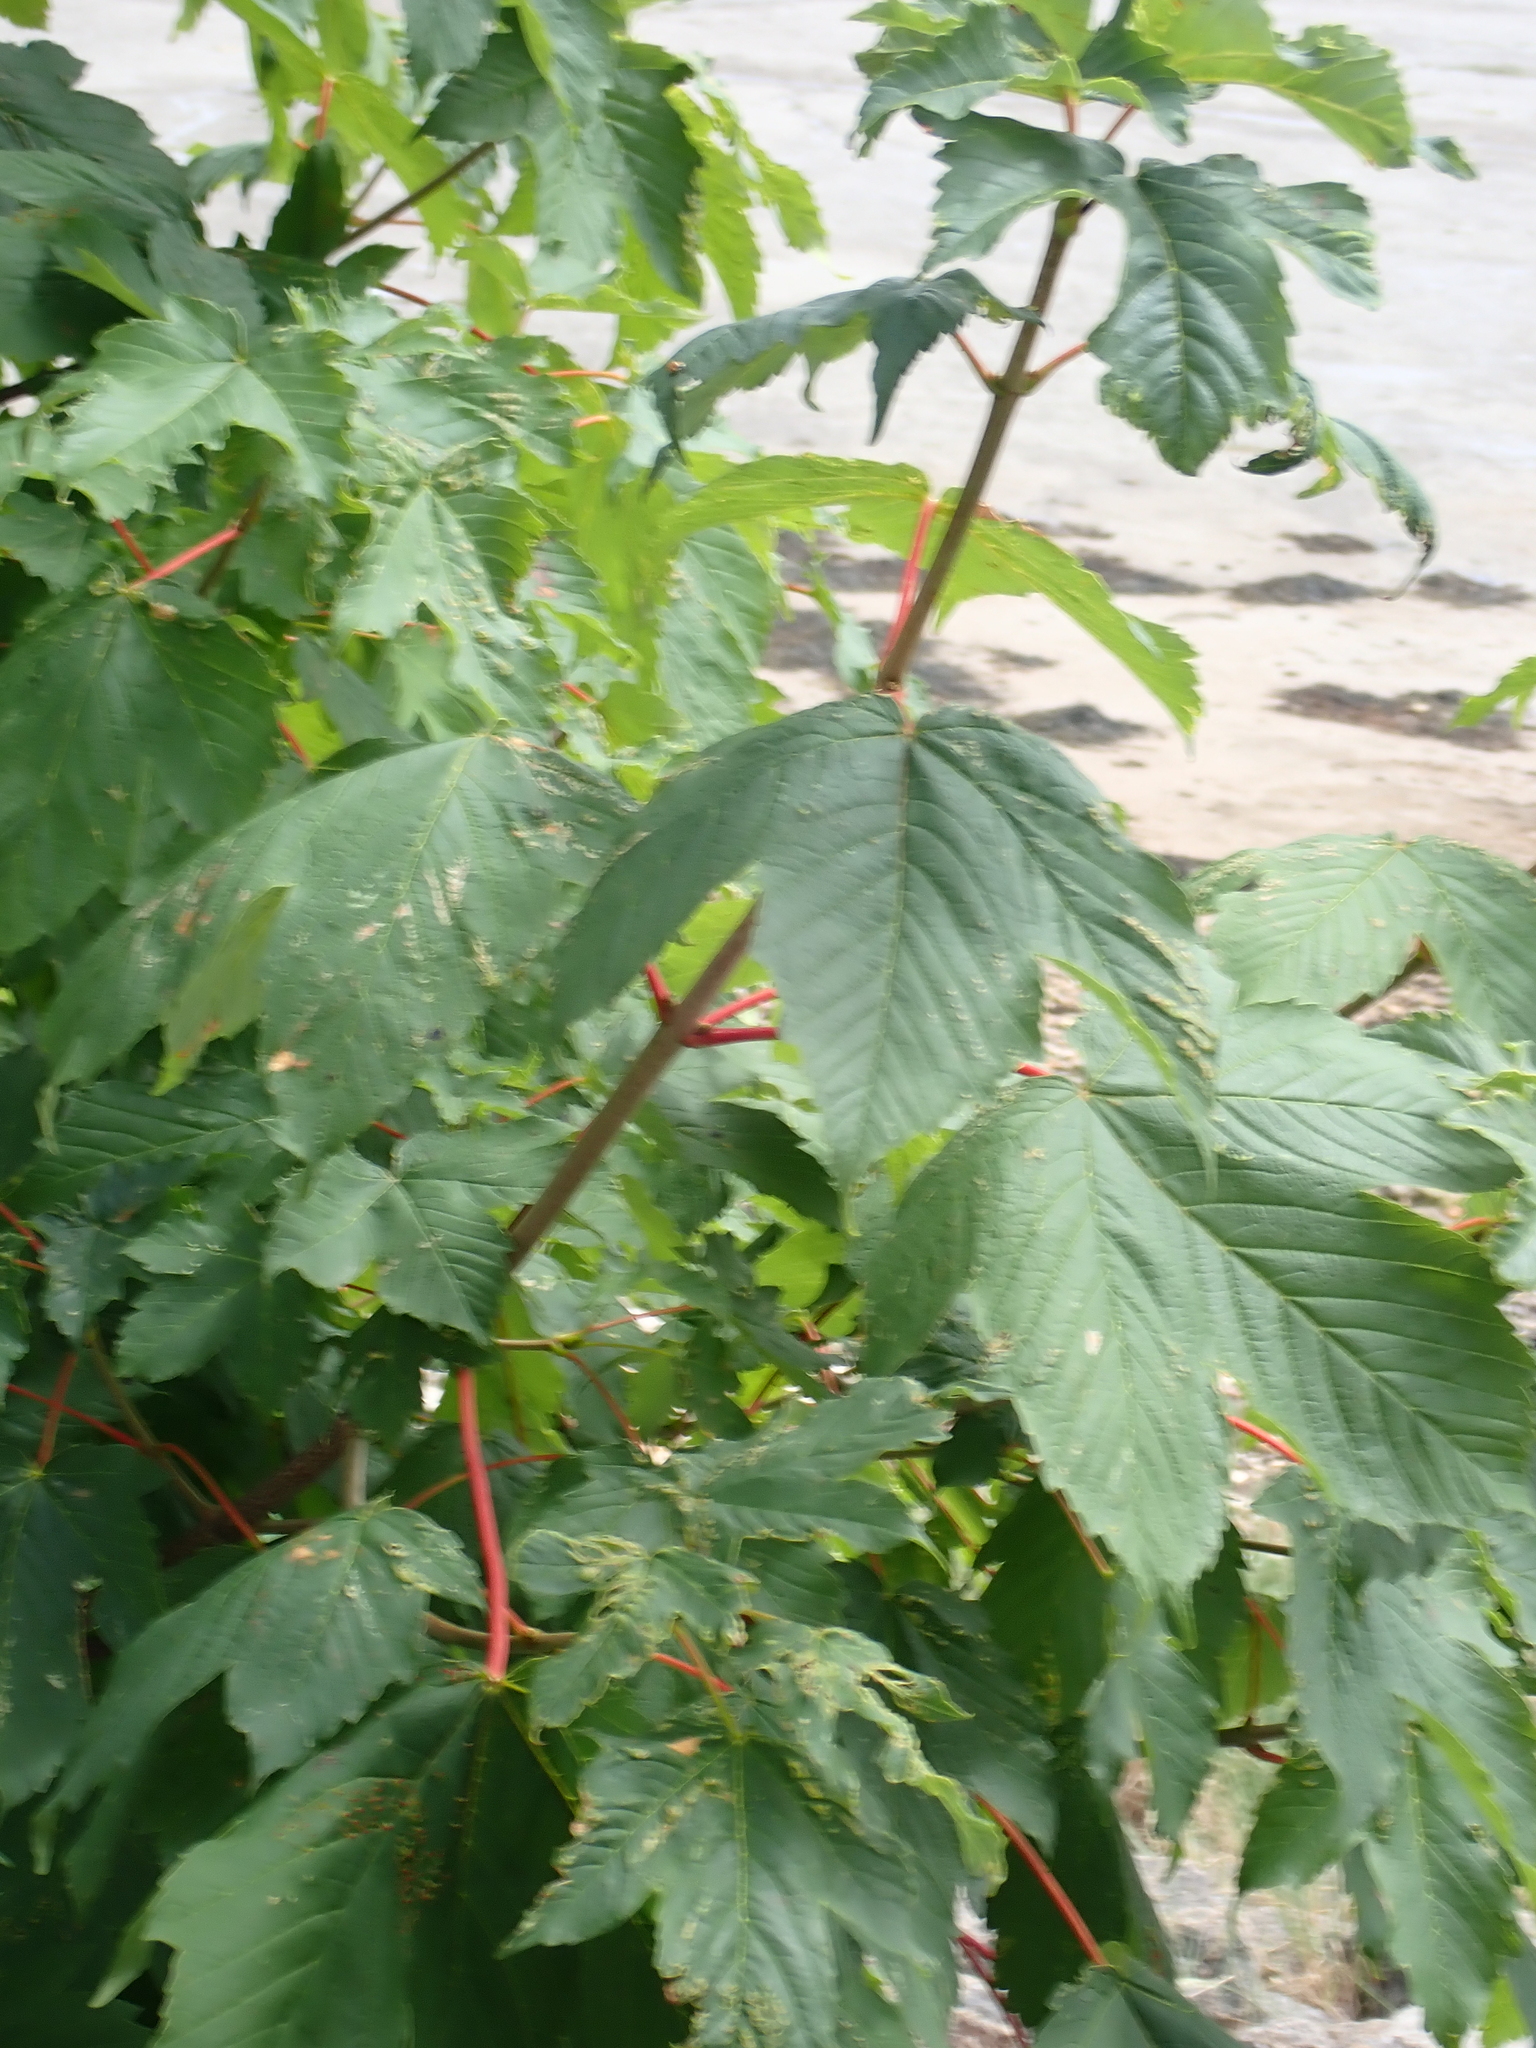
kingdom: Plantae
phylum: Tracheophyta
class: Magnoliopsida
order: Sapindales
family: Sapindaceae
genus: Acer
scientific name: Acer pseudoplatanus
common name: Sycamore
